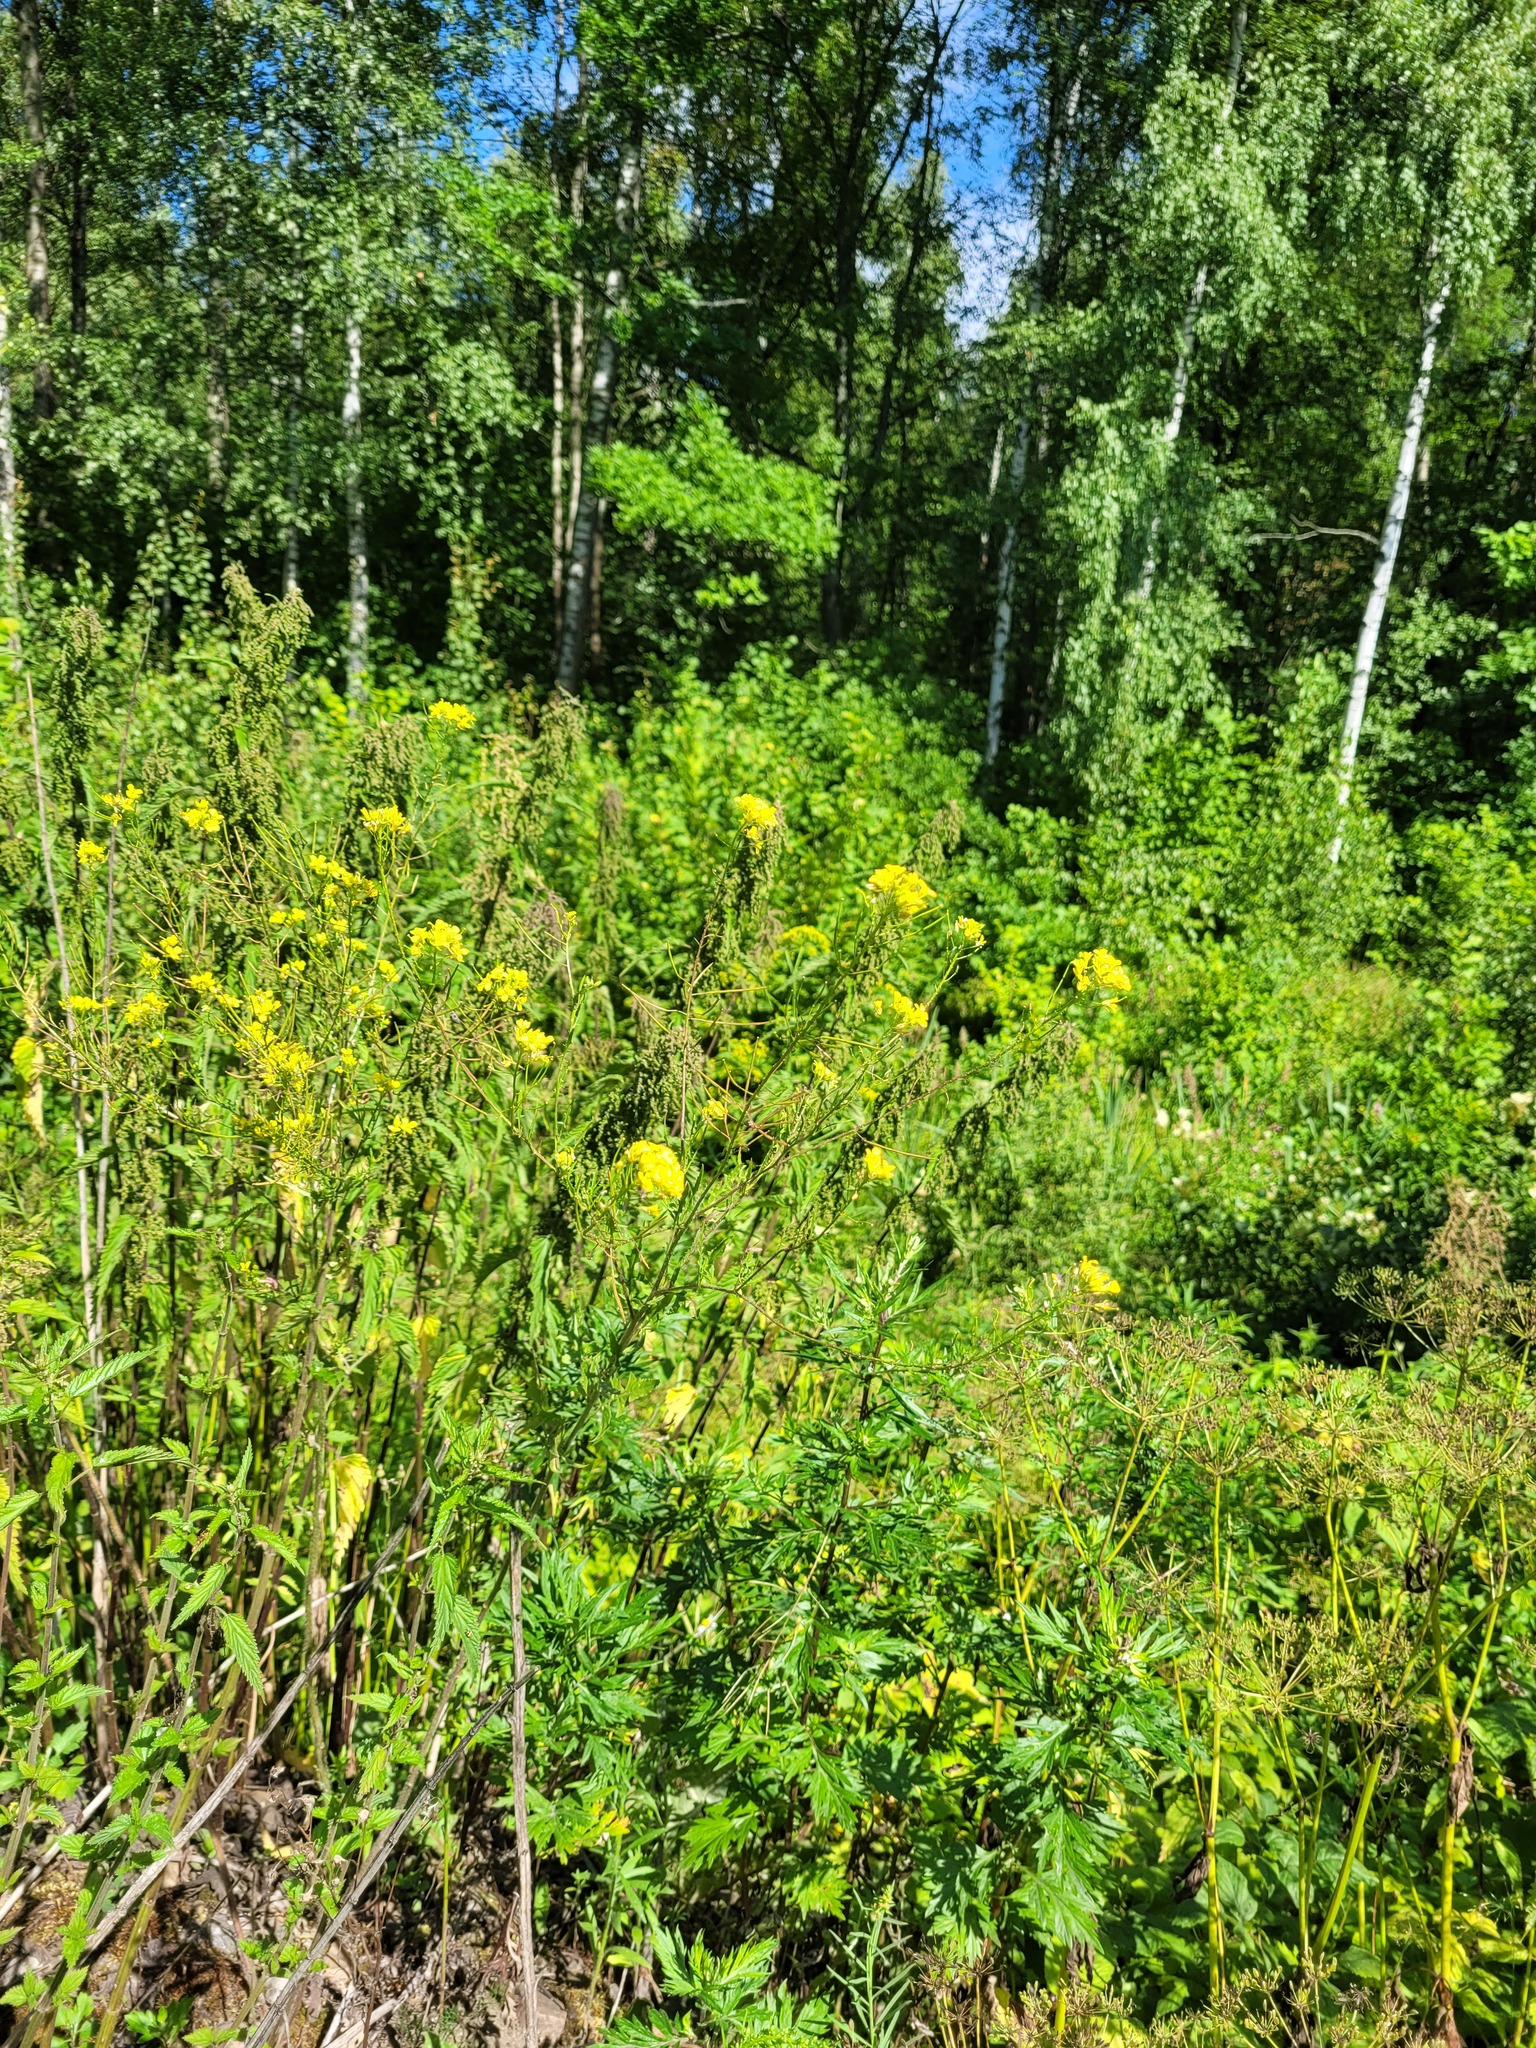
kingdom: Plantae
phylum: Tracheophyta
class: Magnoliopsida
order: Brassicales
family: Brassicaceae
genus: Sisymbrium
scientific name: Sisymbrium loeselii
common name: False london-rocket
